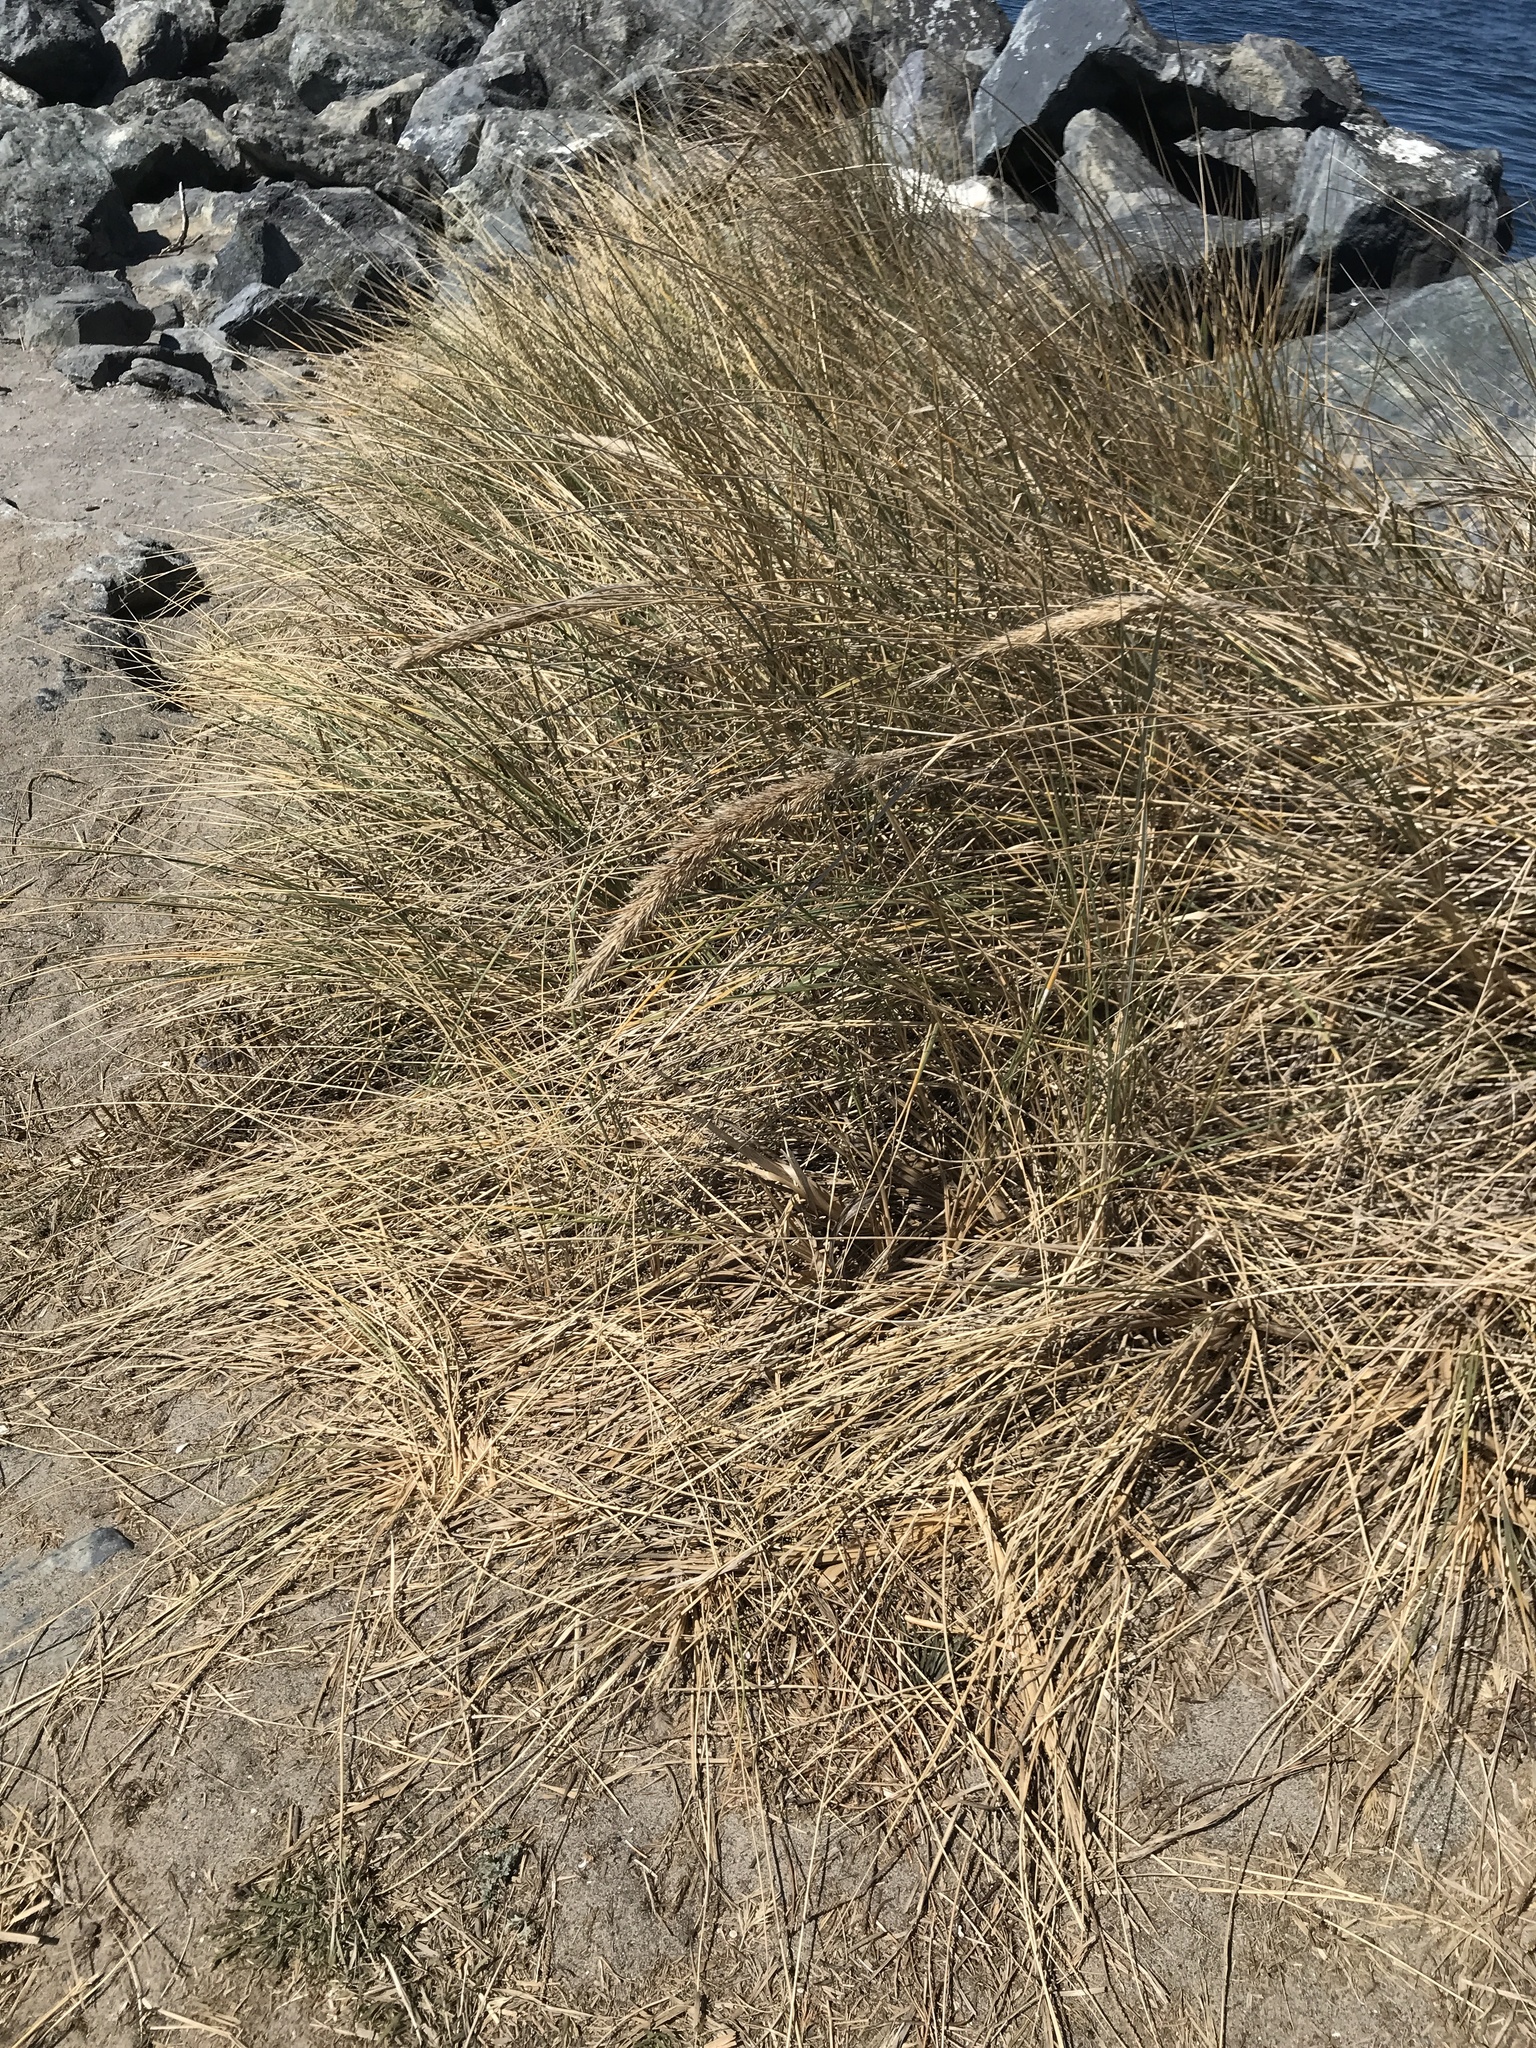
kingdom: Plantae
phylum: Tracheophyta
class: Liliopsida
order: Poales
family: Poaceae
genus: Calamagrostis
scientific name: Calamagrostis arenaria
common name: European beachgrass
